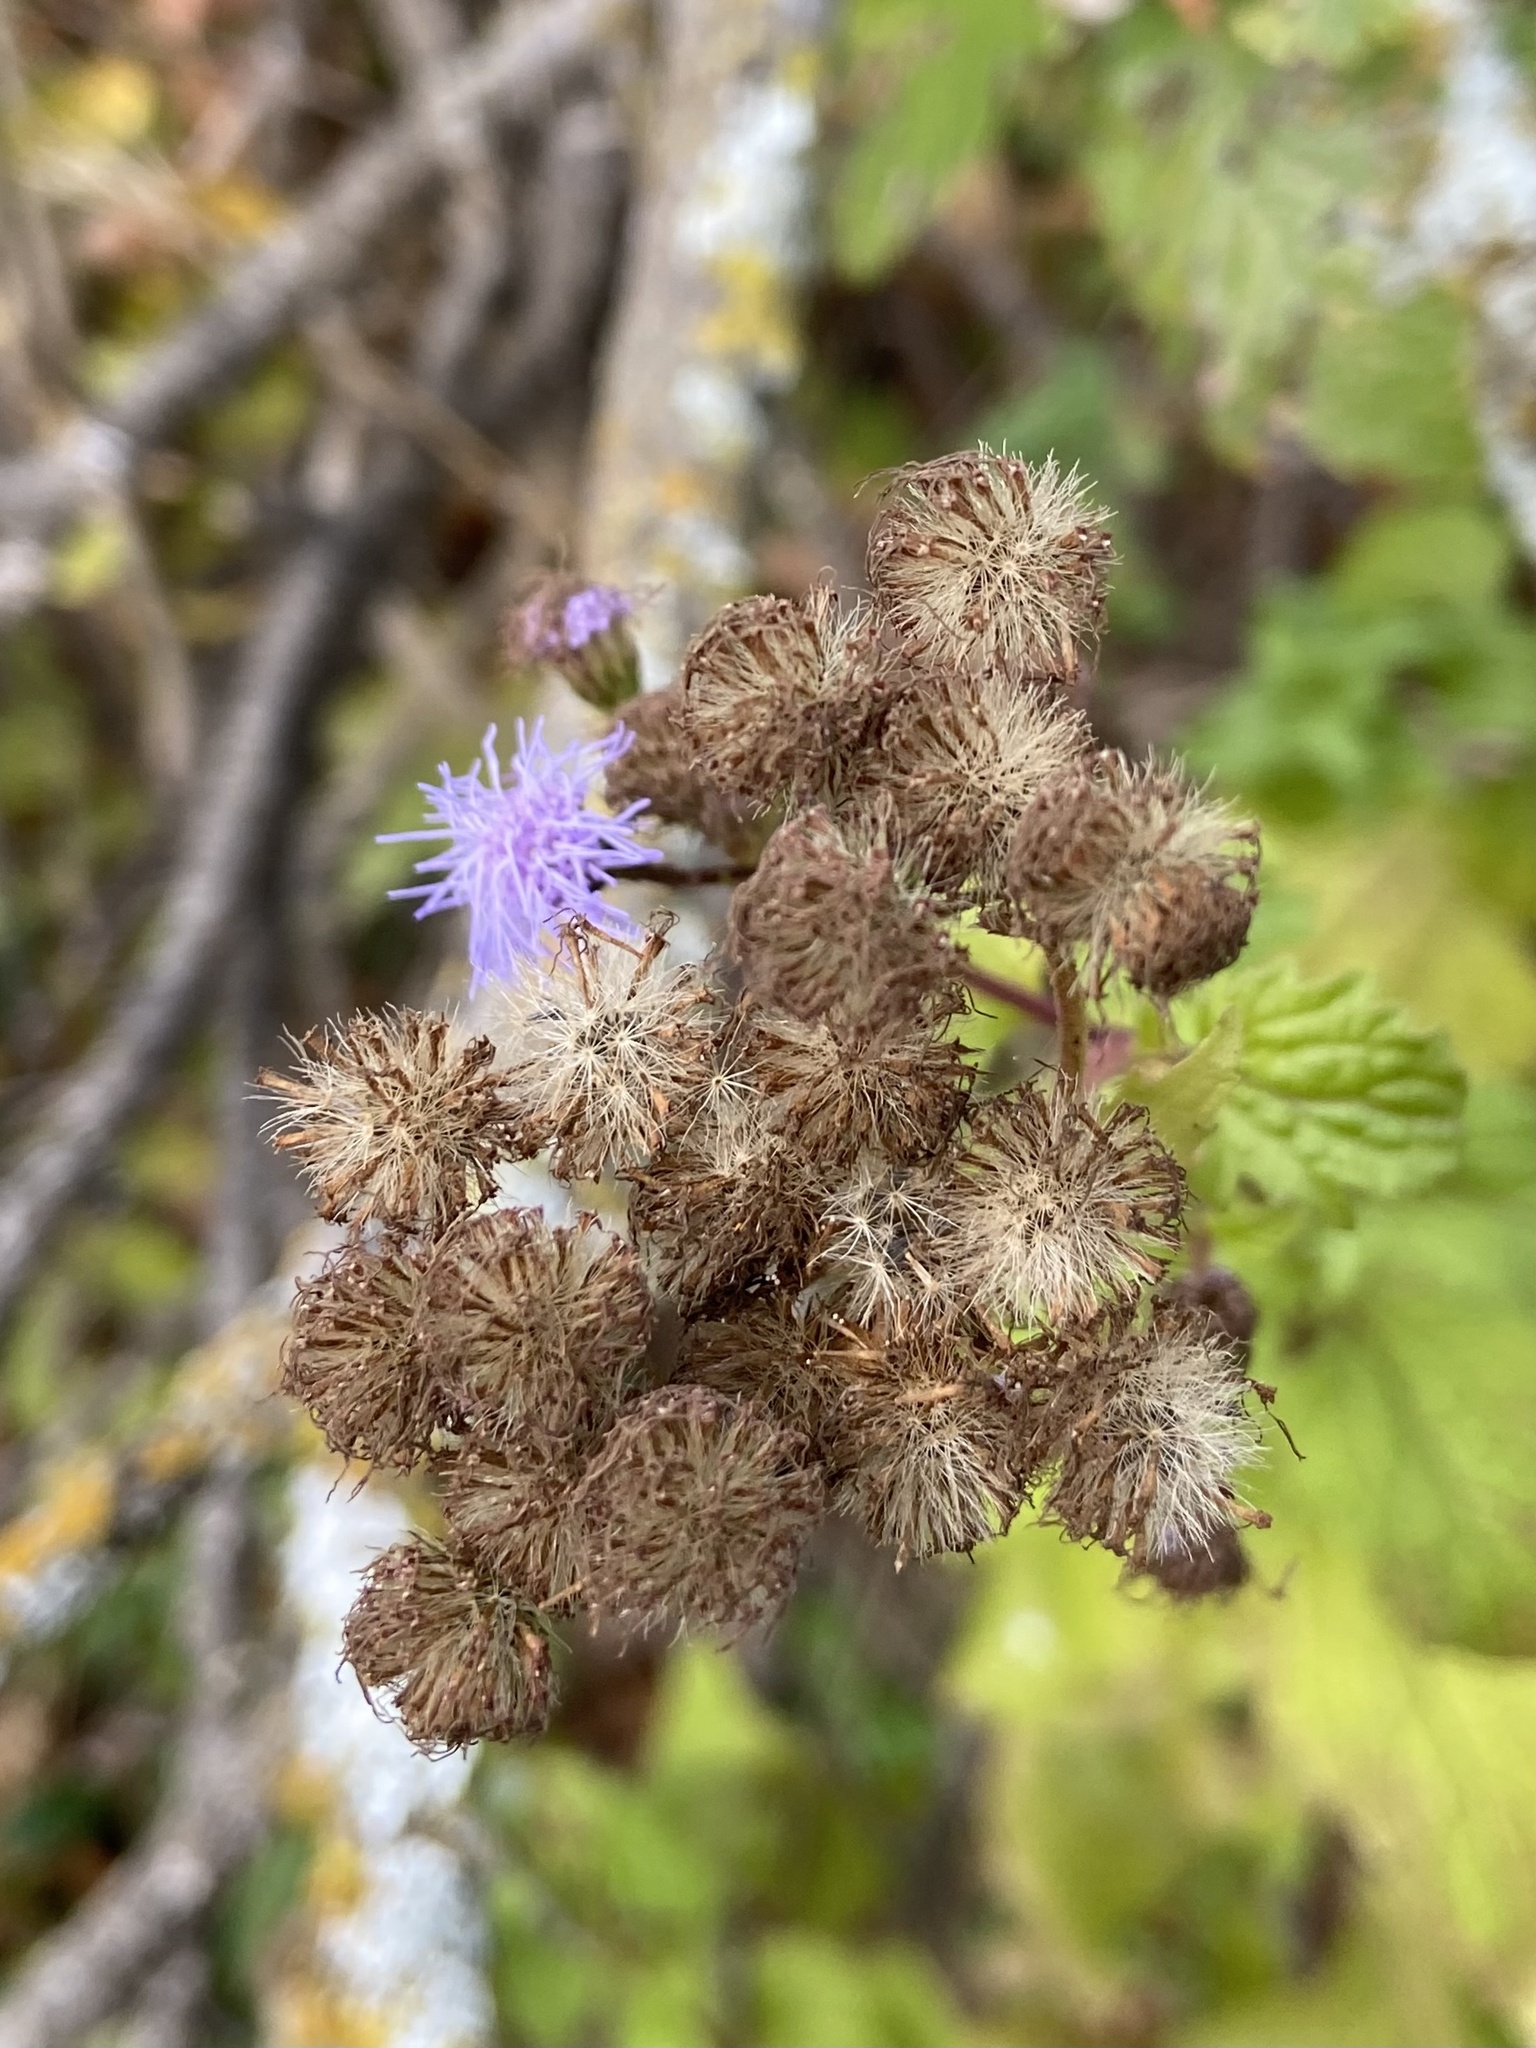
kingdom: Plantae
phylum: Tracheophyta
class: Magnoliopsida
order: Asterales
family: Asteraceae
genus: Conoclinium
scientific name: Conoclinium coelestinum
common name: Blue mistflower
